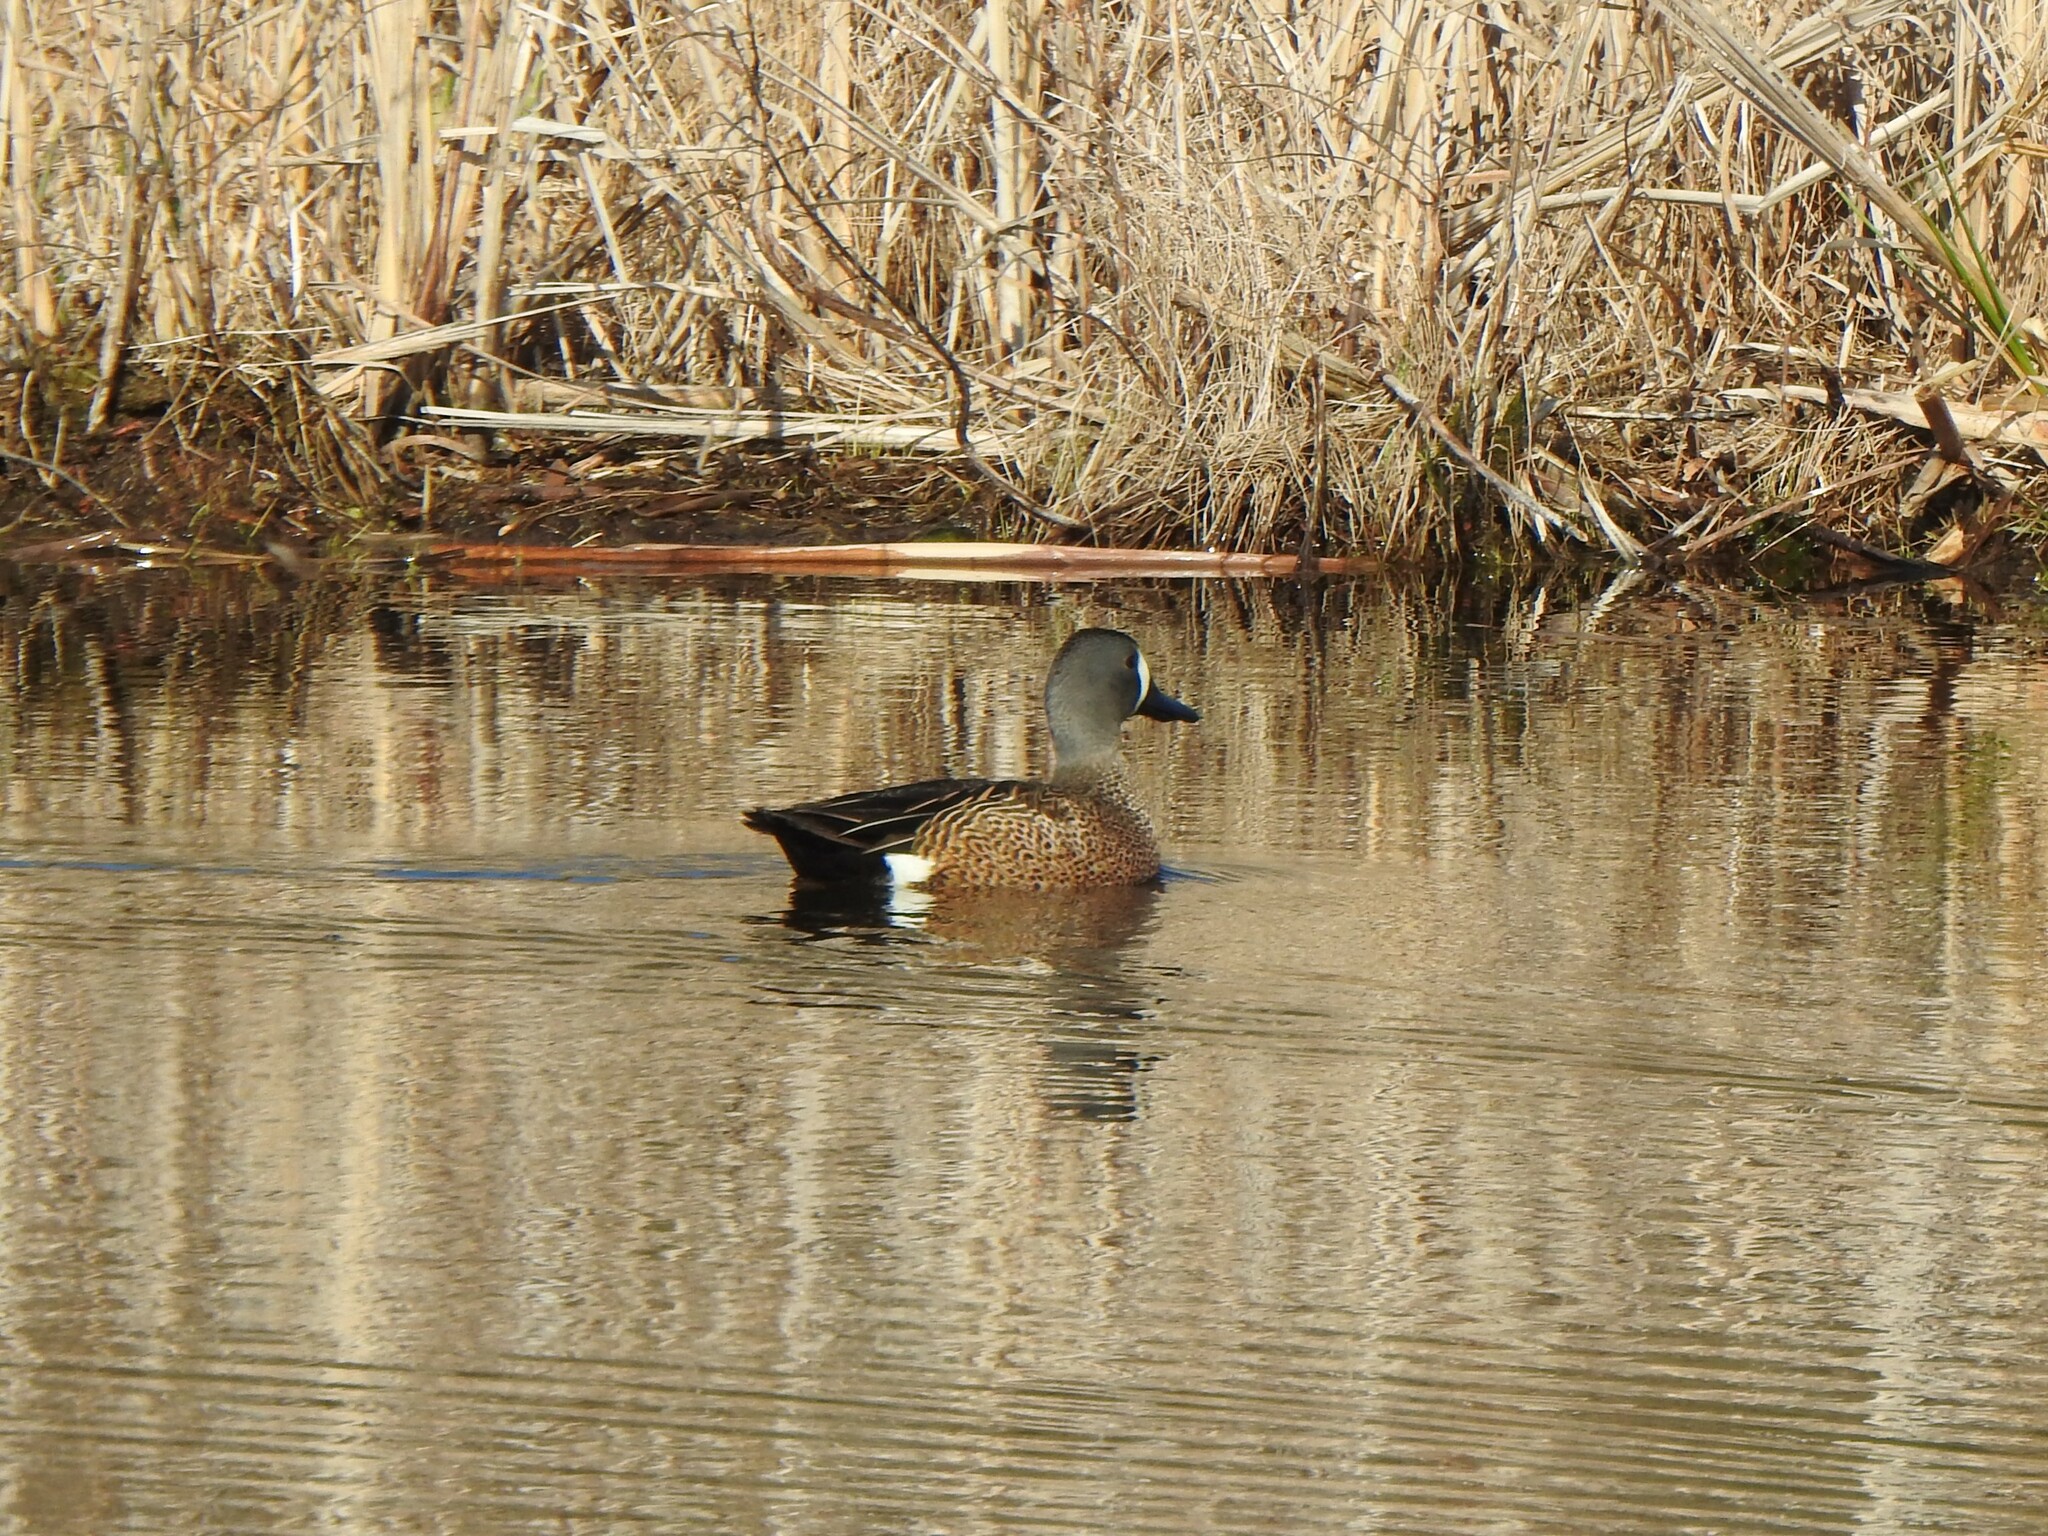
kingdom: Animalia
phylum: Chordata
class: Aves
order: Anseriformes
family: Anatidae
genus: Spatula
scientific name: Spatula discors
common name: Blue-winged teal
